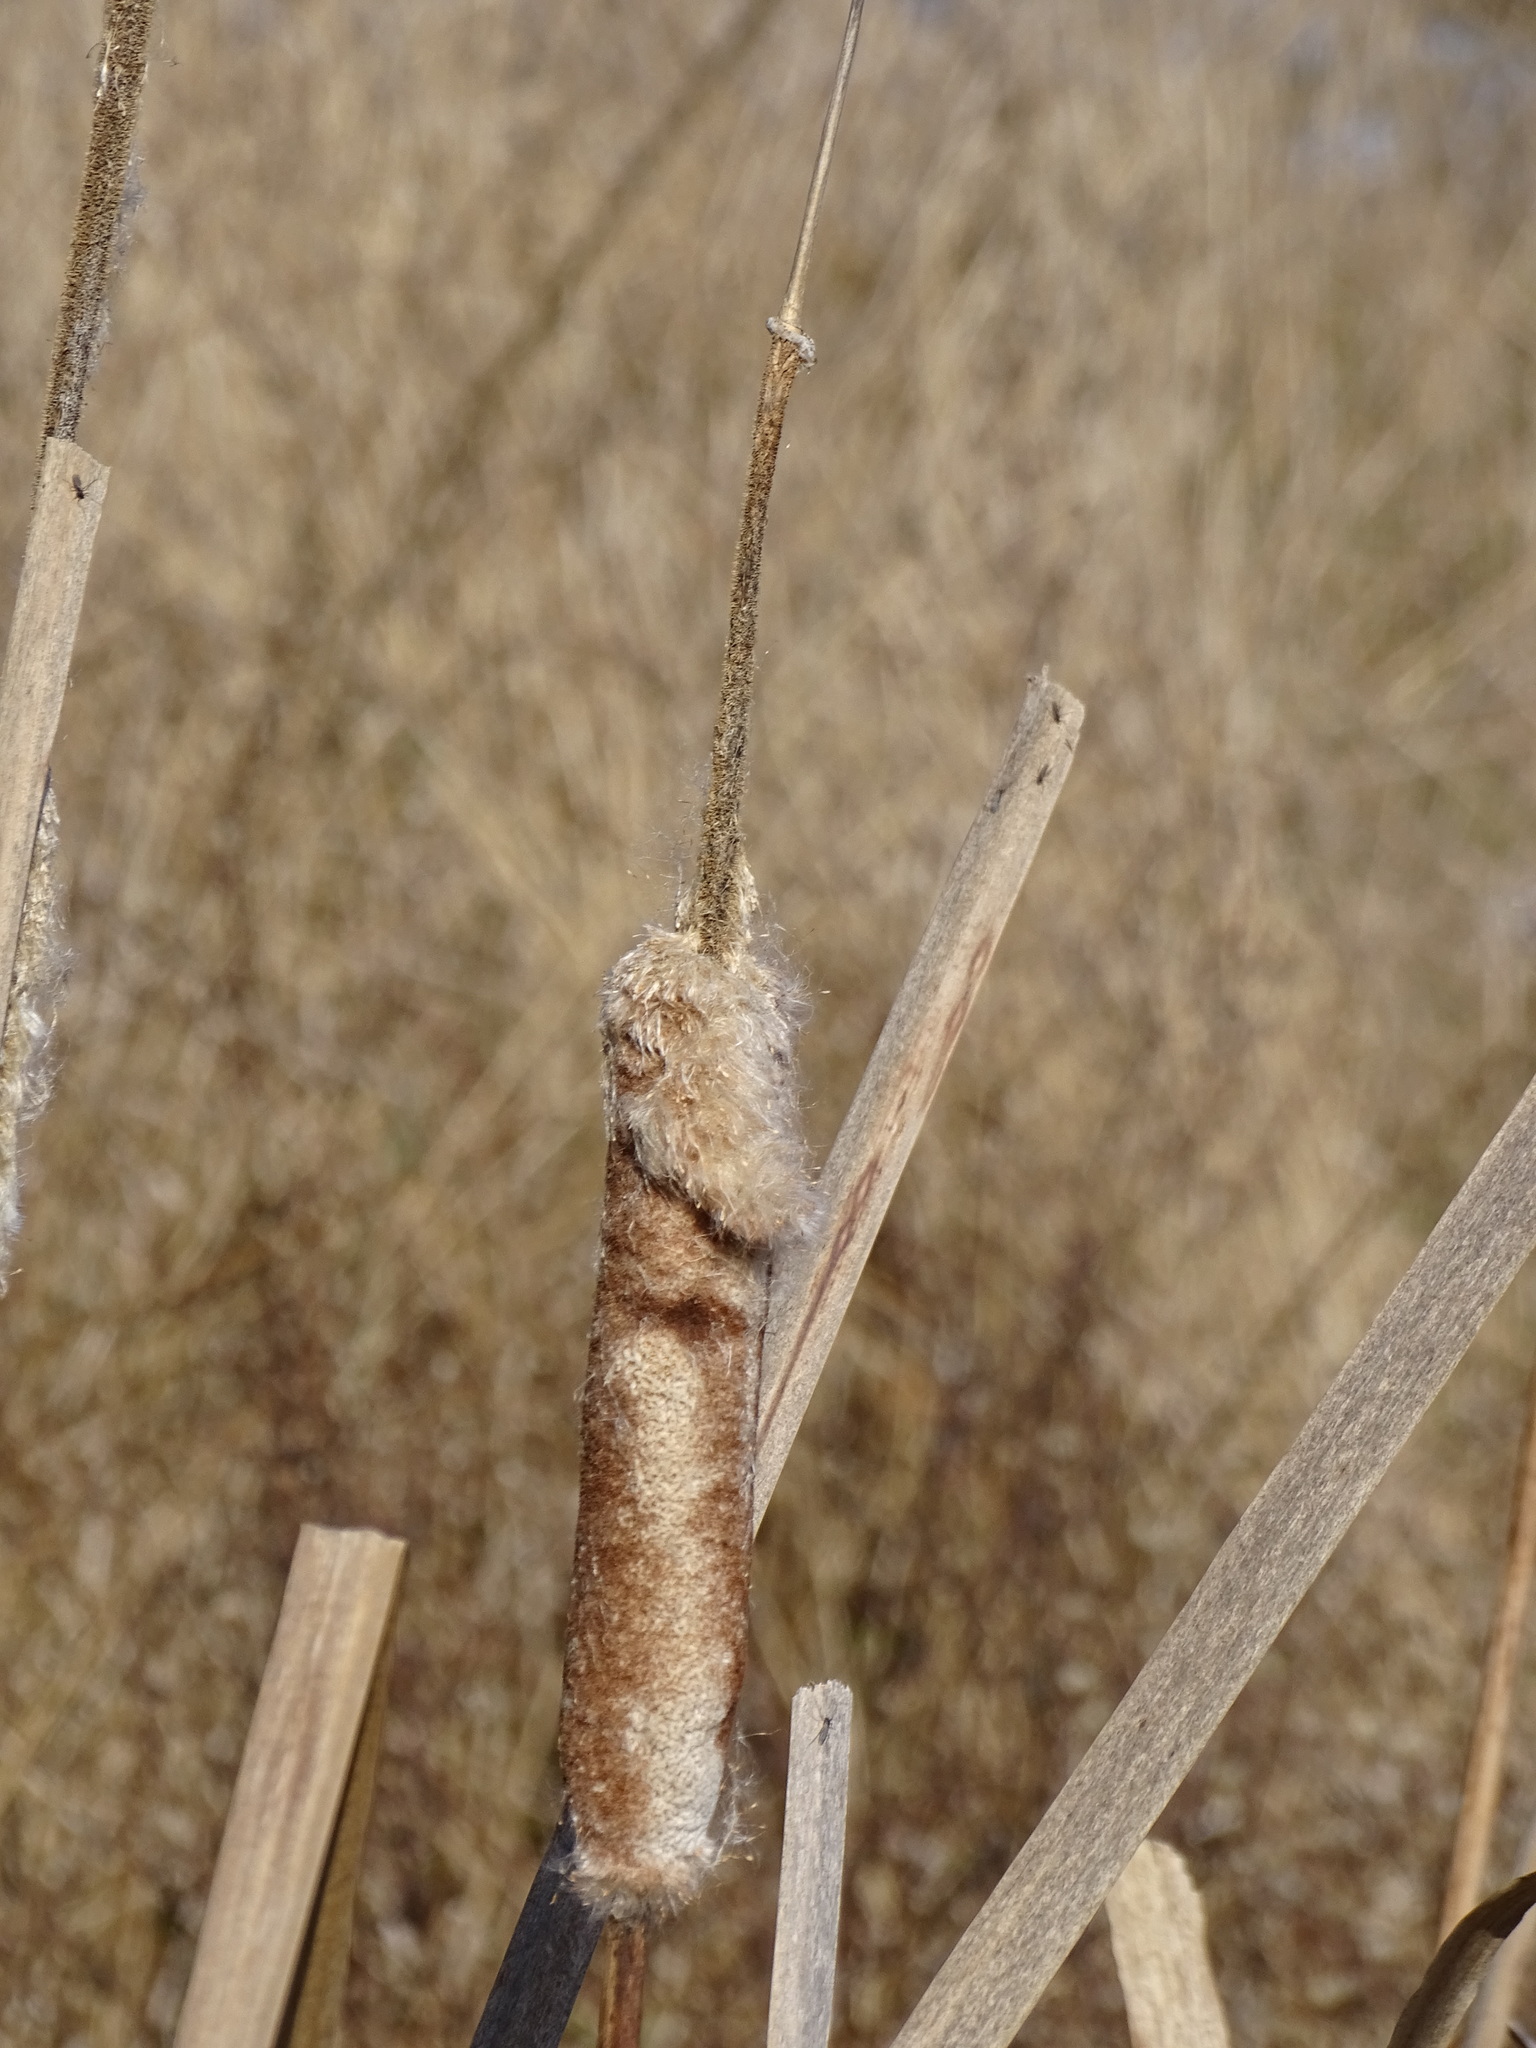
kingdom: Plantae
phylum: Tracheophyta
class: Liliopsida
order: Poales
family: Typhaceae
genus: Typha
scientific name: Typha latifolia
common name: Broadleaf cattail
